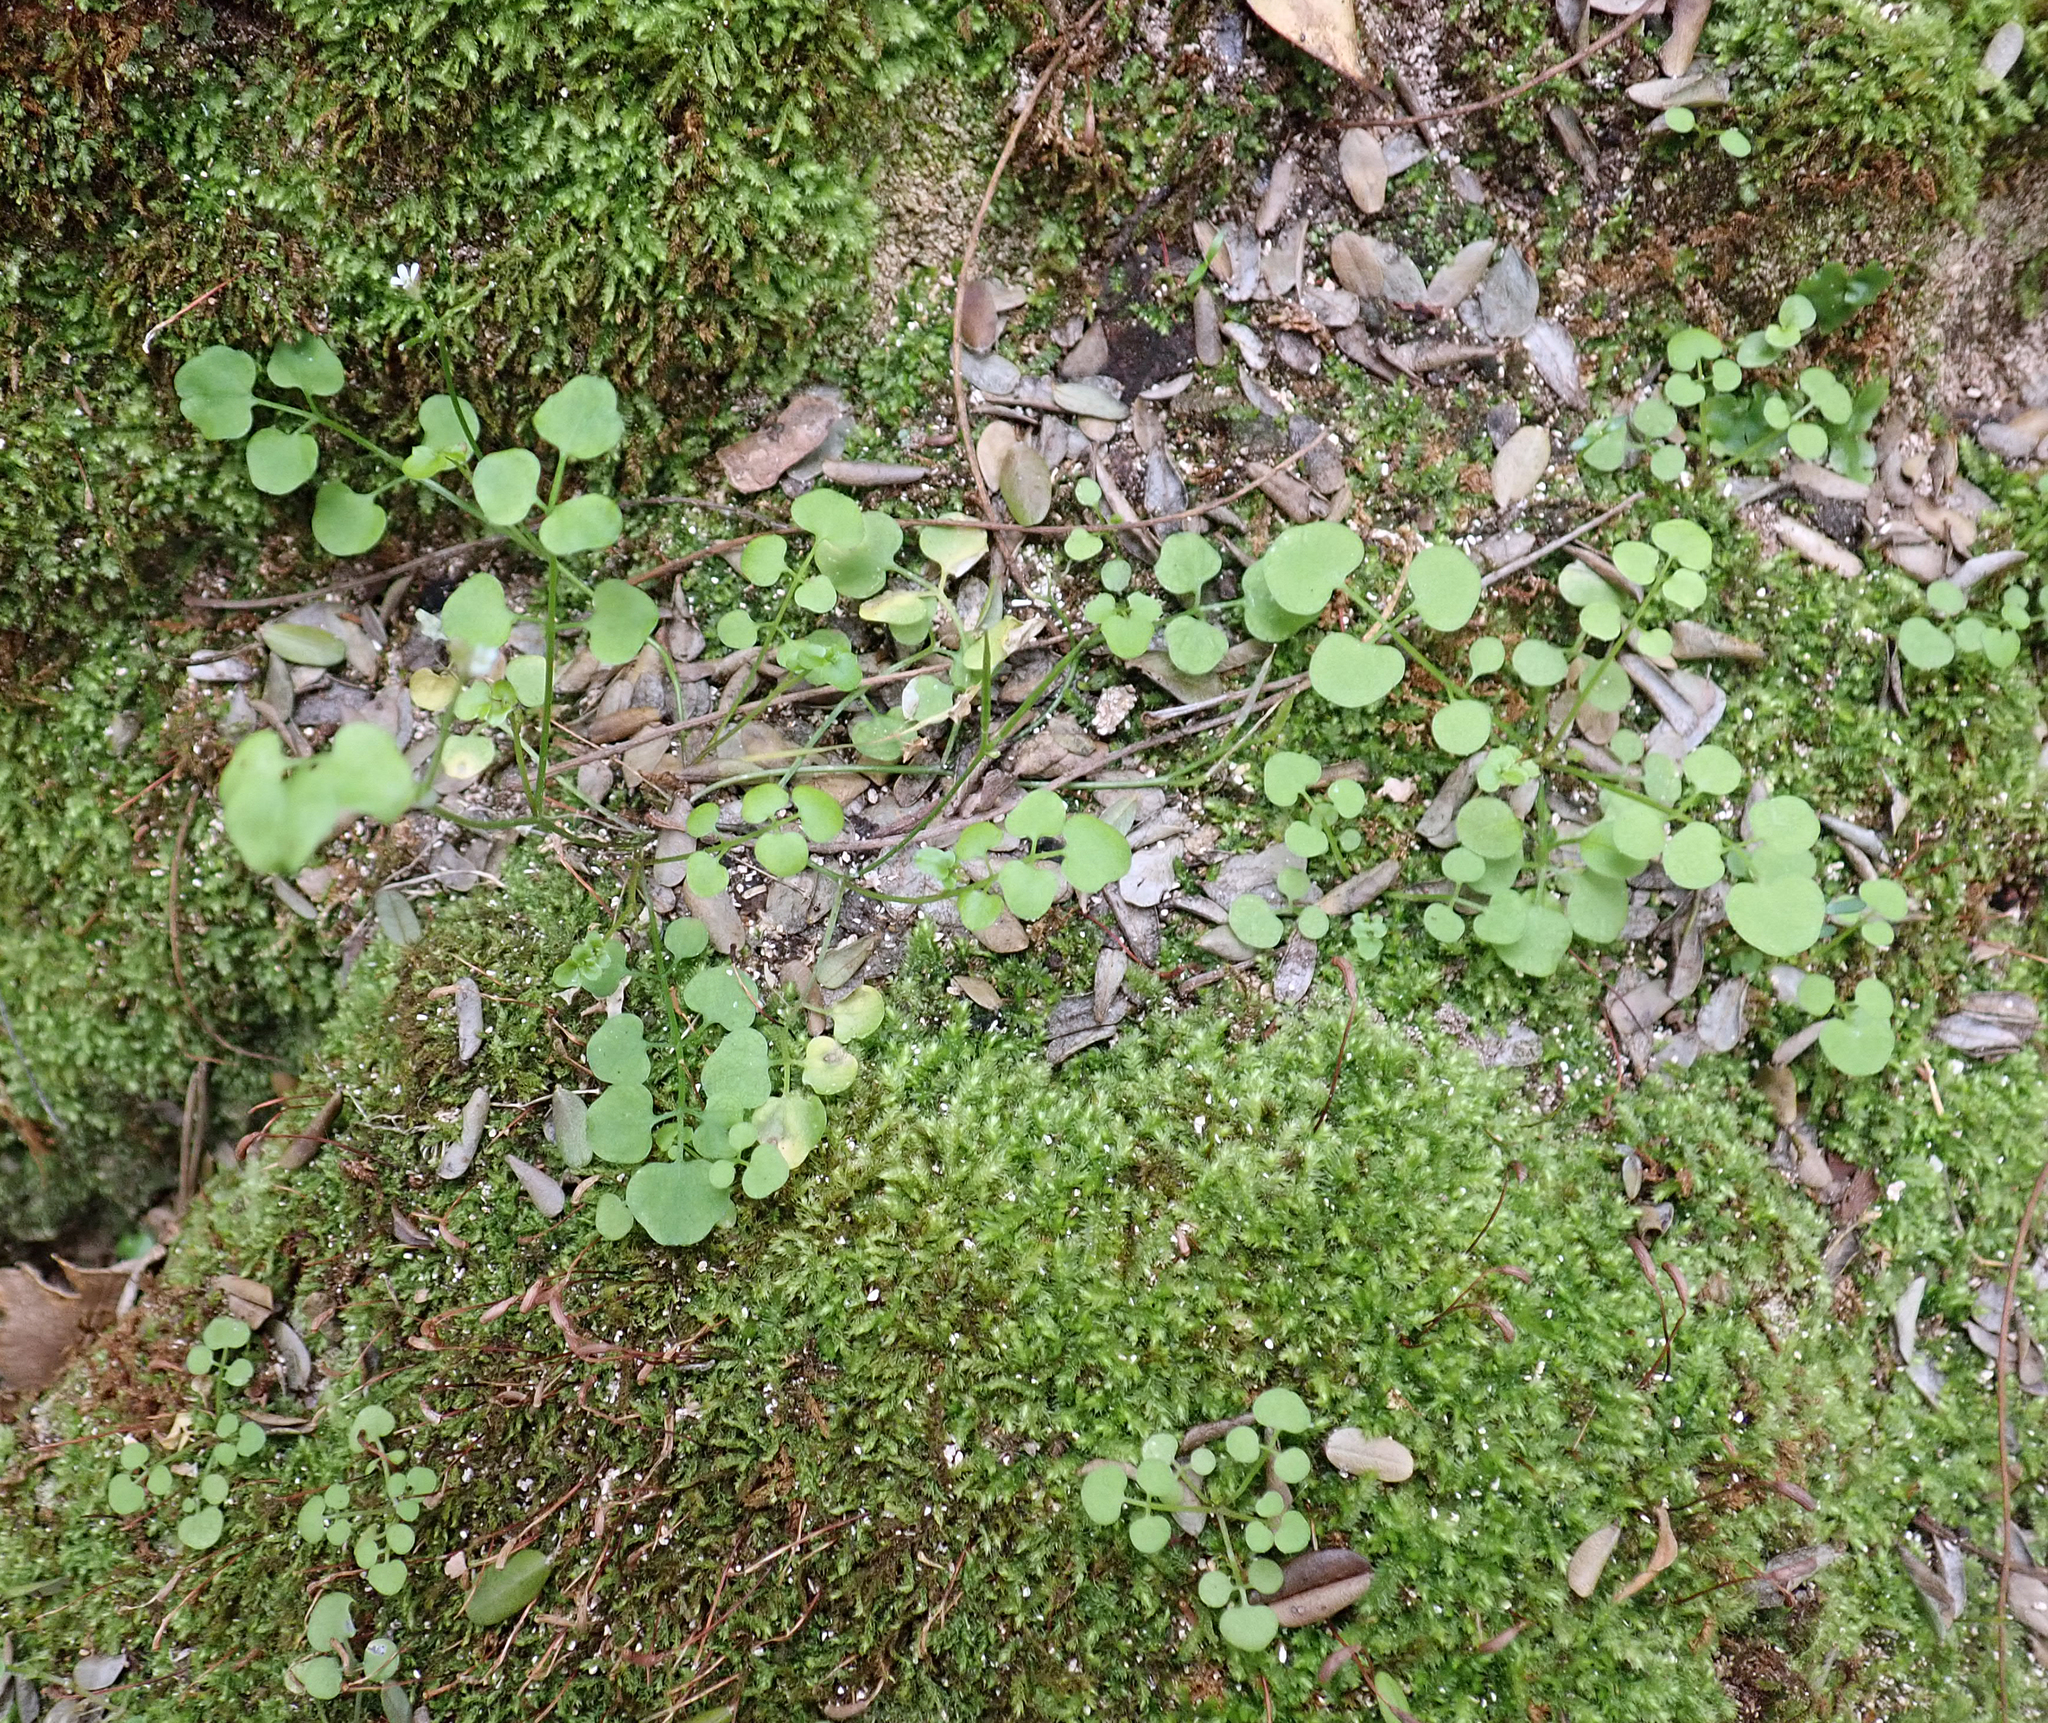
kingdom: Plantae
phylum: Tracheophyta
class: Magnoliopsida
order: Brassicales
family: Brassicaceae
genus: Cardamine
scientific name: Cardamine forsteri
